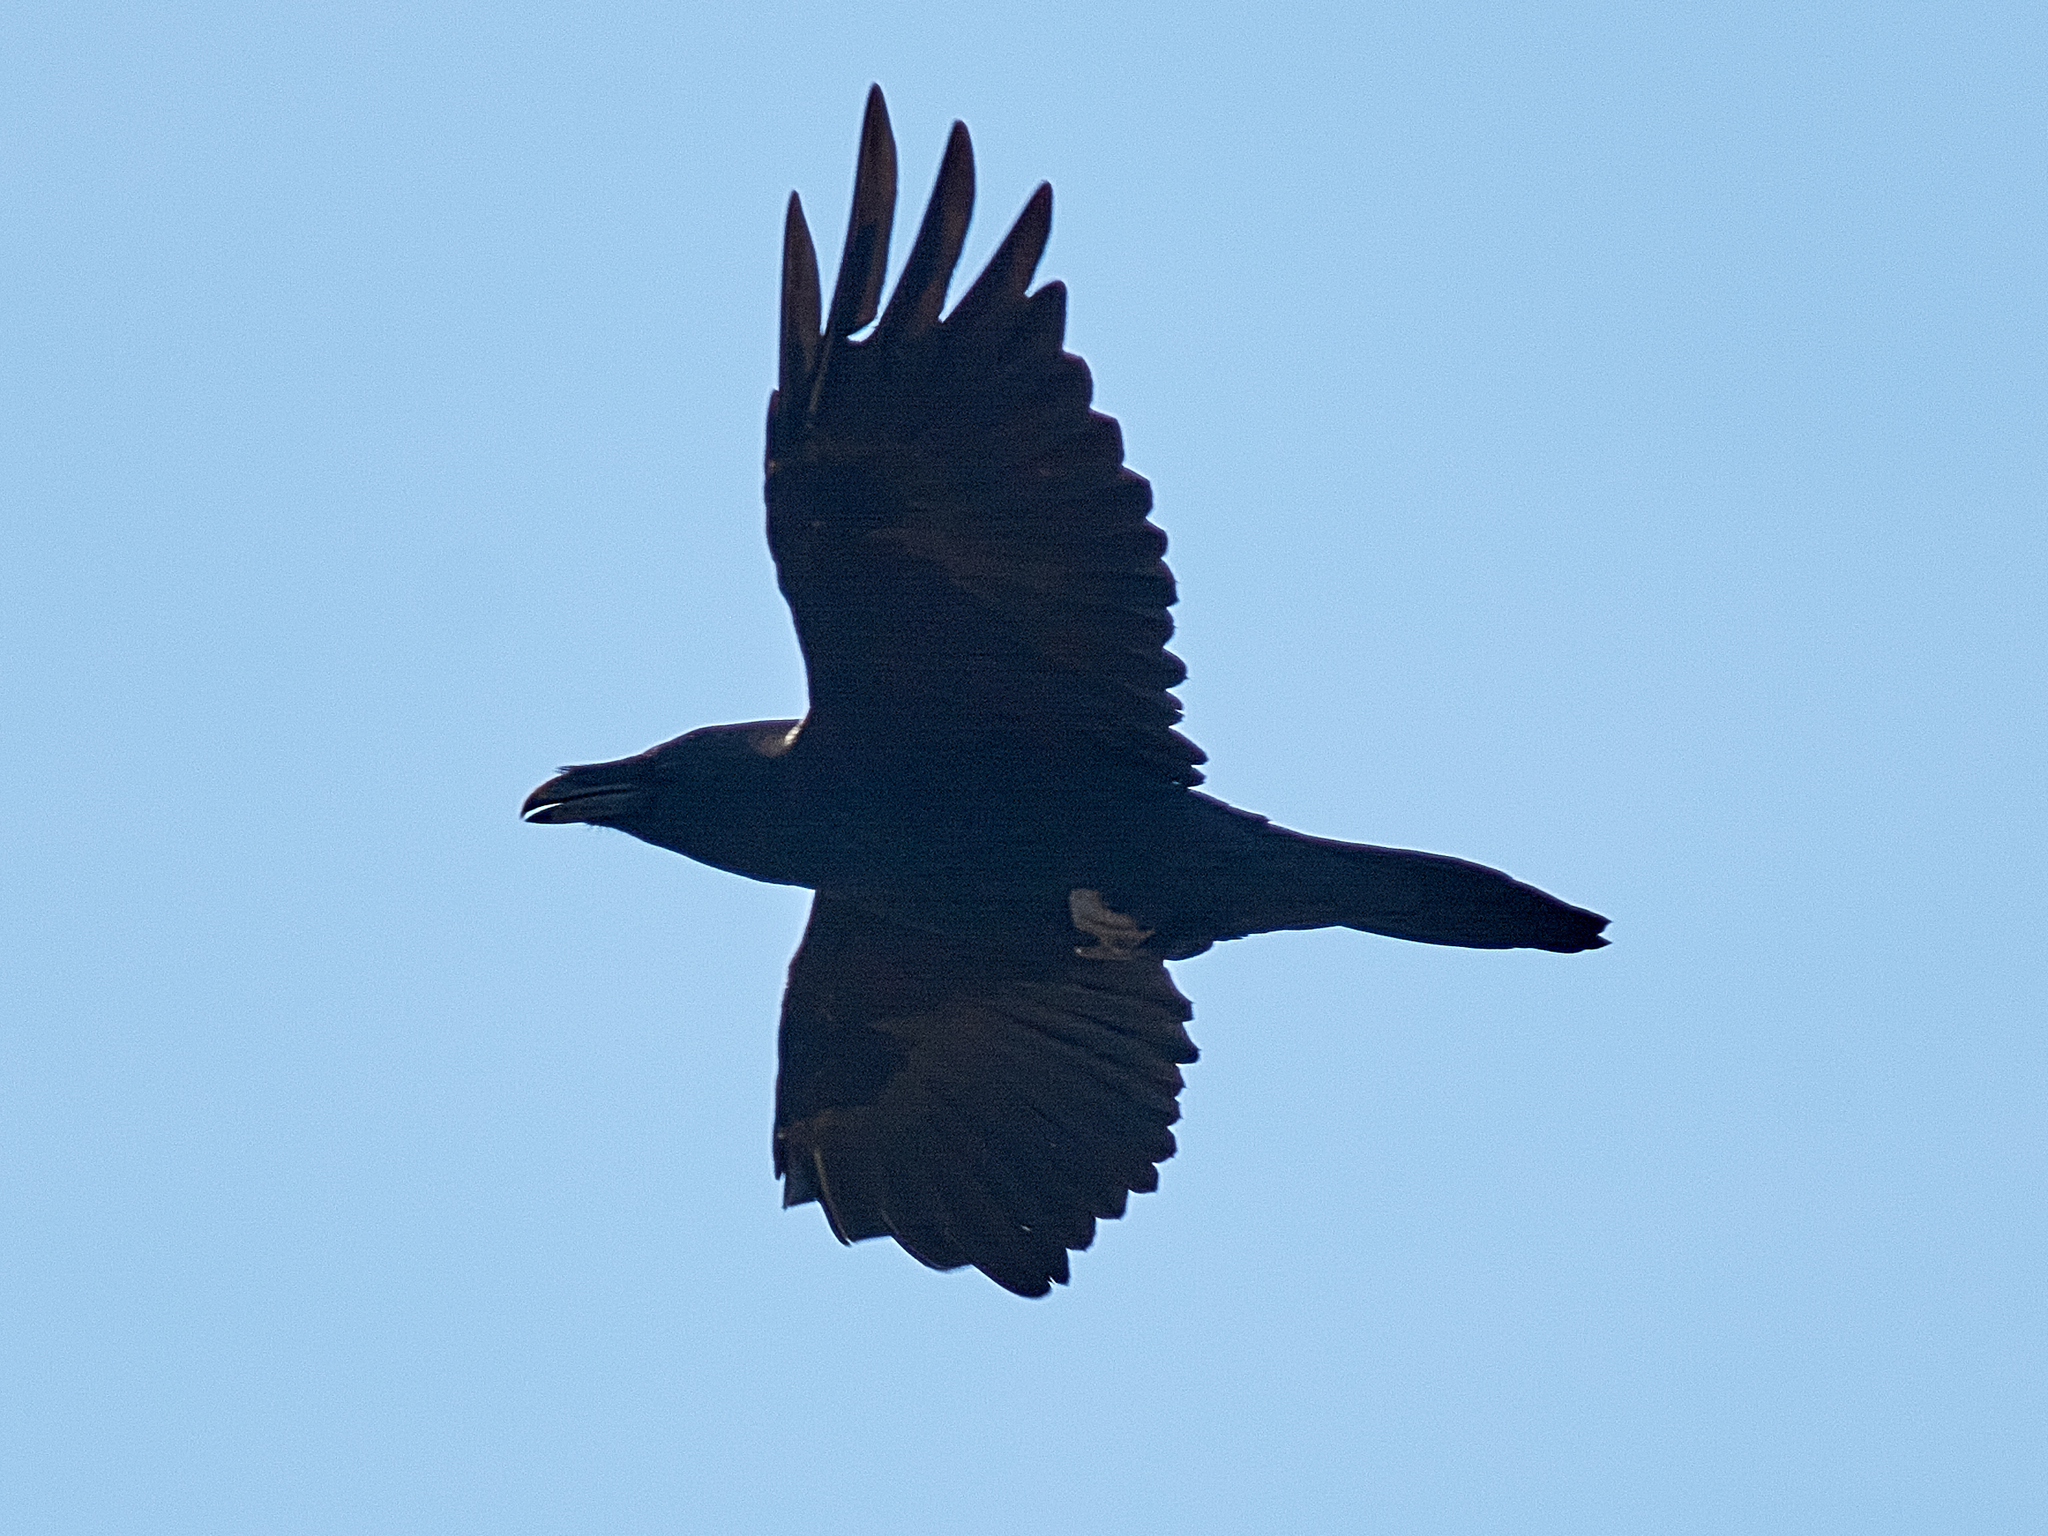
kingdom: Animalia
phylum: Chordata
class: Aves
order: Passeriformes
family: Corvidae
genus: Corvus
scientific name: Corvus corax
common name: Common raven
